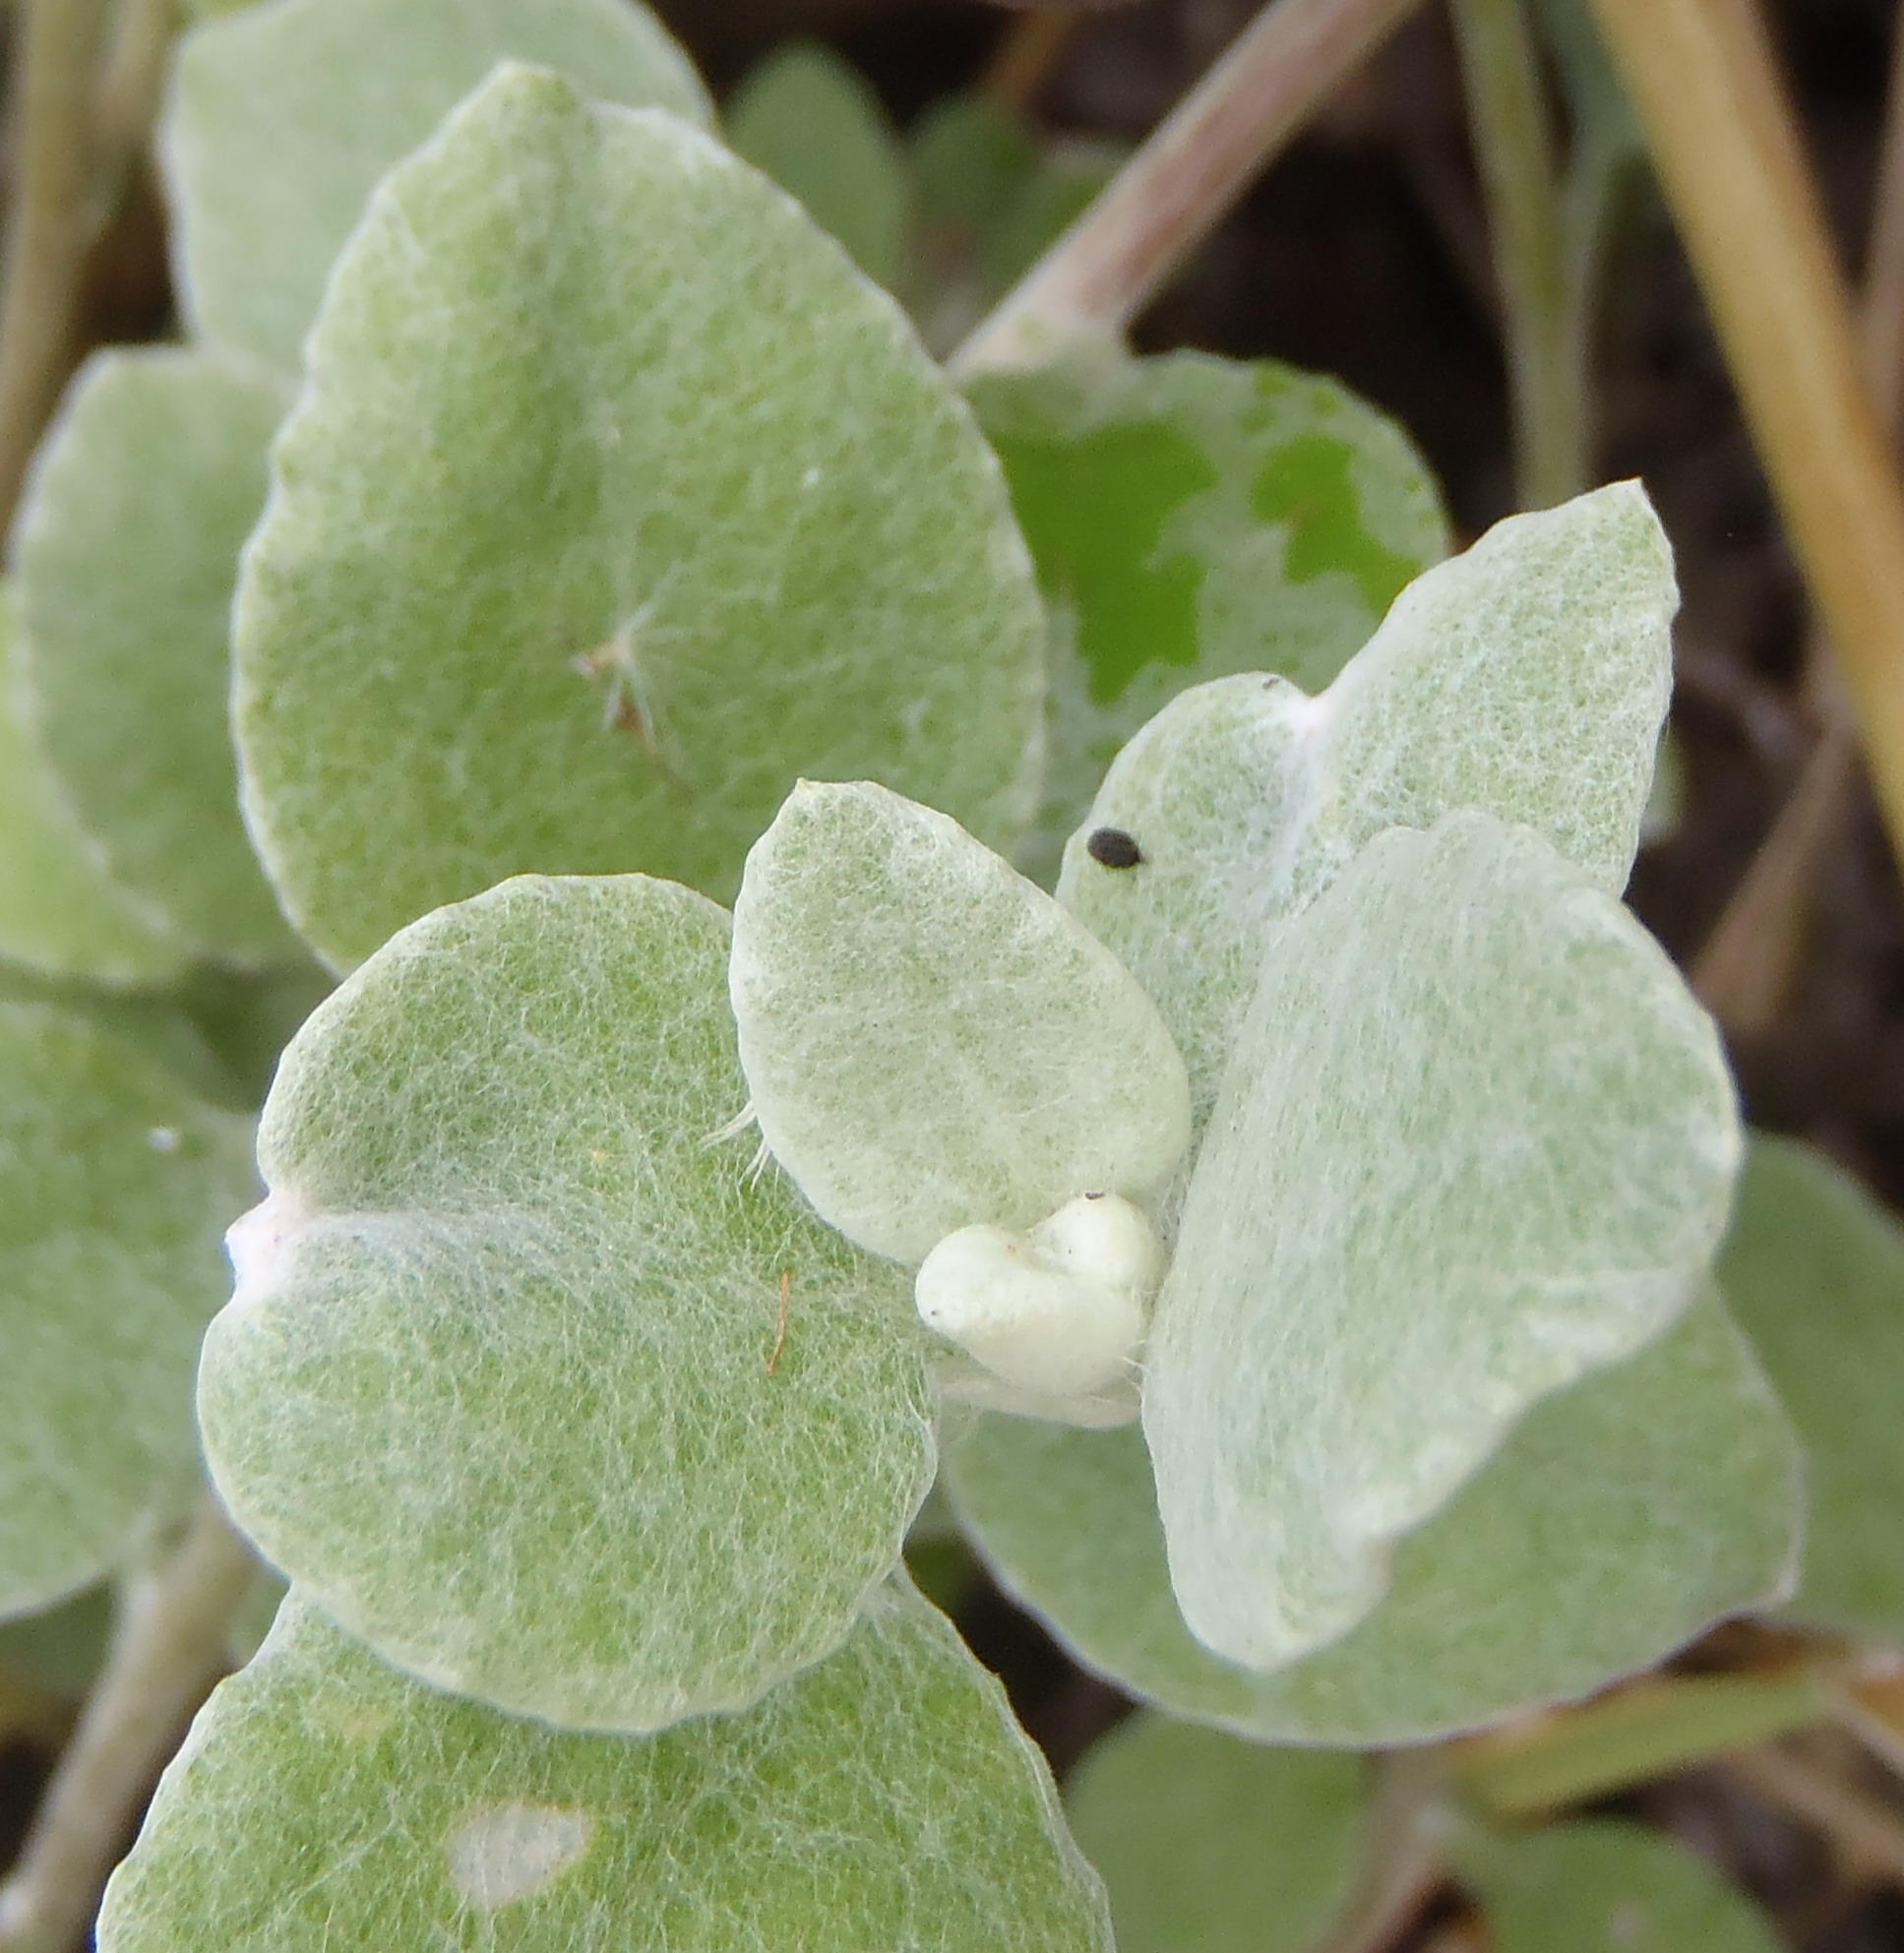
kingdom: Plantae
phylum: Tracheophyta
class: Magnoliopsida
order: Asterales
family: Asteraceae
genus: Helichrysum
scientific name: Helichrysum petiolare
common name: Licorice-plant
